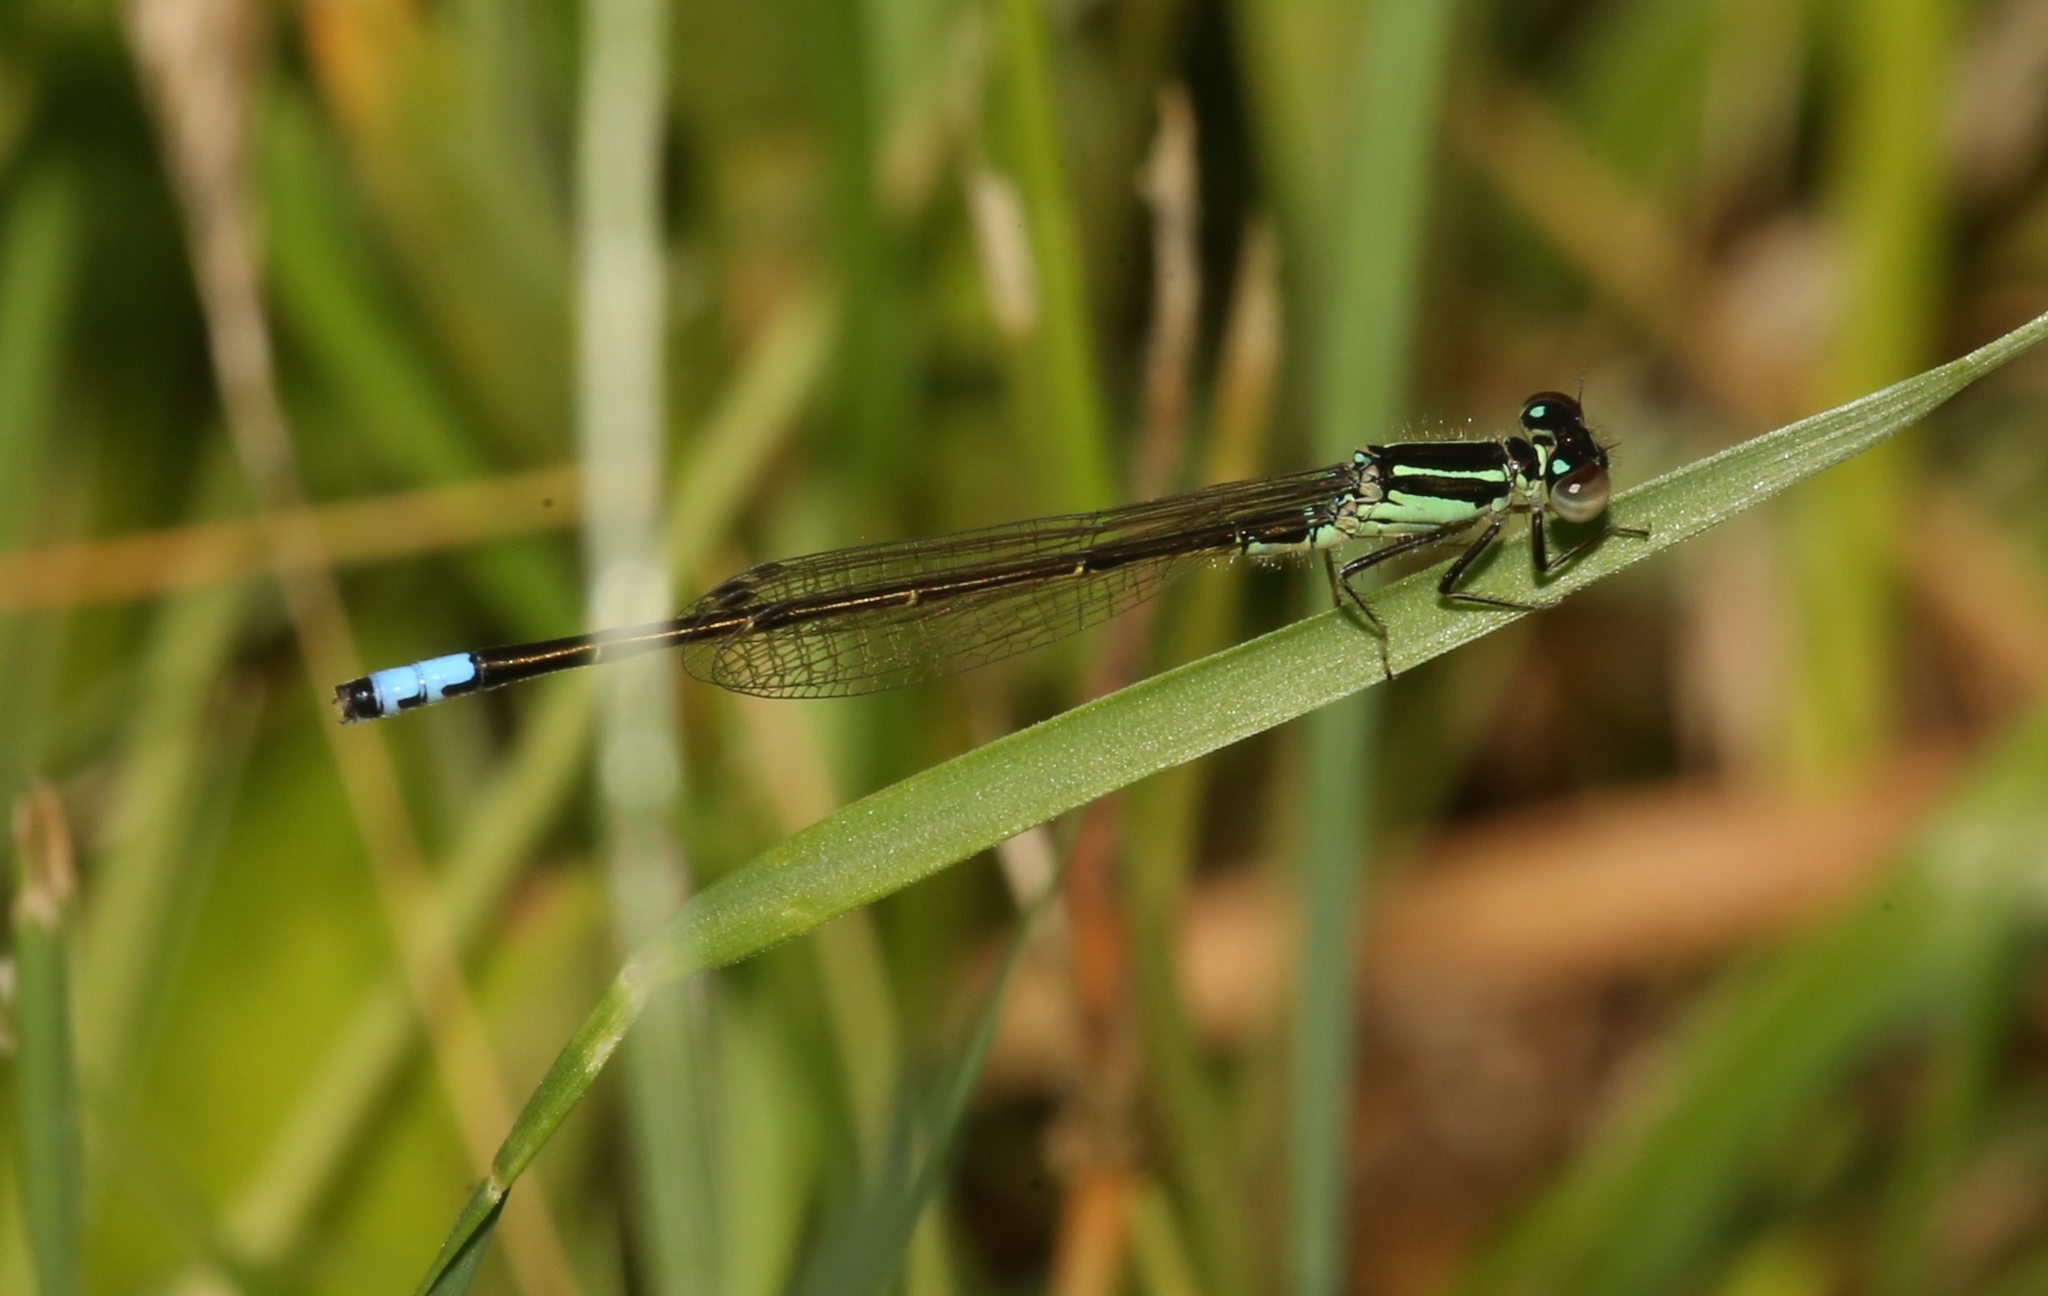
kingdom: Animalia
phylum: Arthropoda
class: Insecta
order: Odonata
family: Coenagrionidae
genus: Ischnura
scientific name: Ischnura verticalis
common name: Eastern forktail
